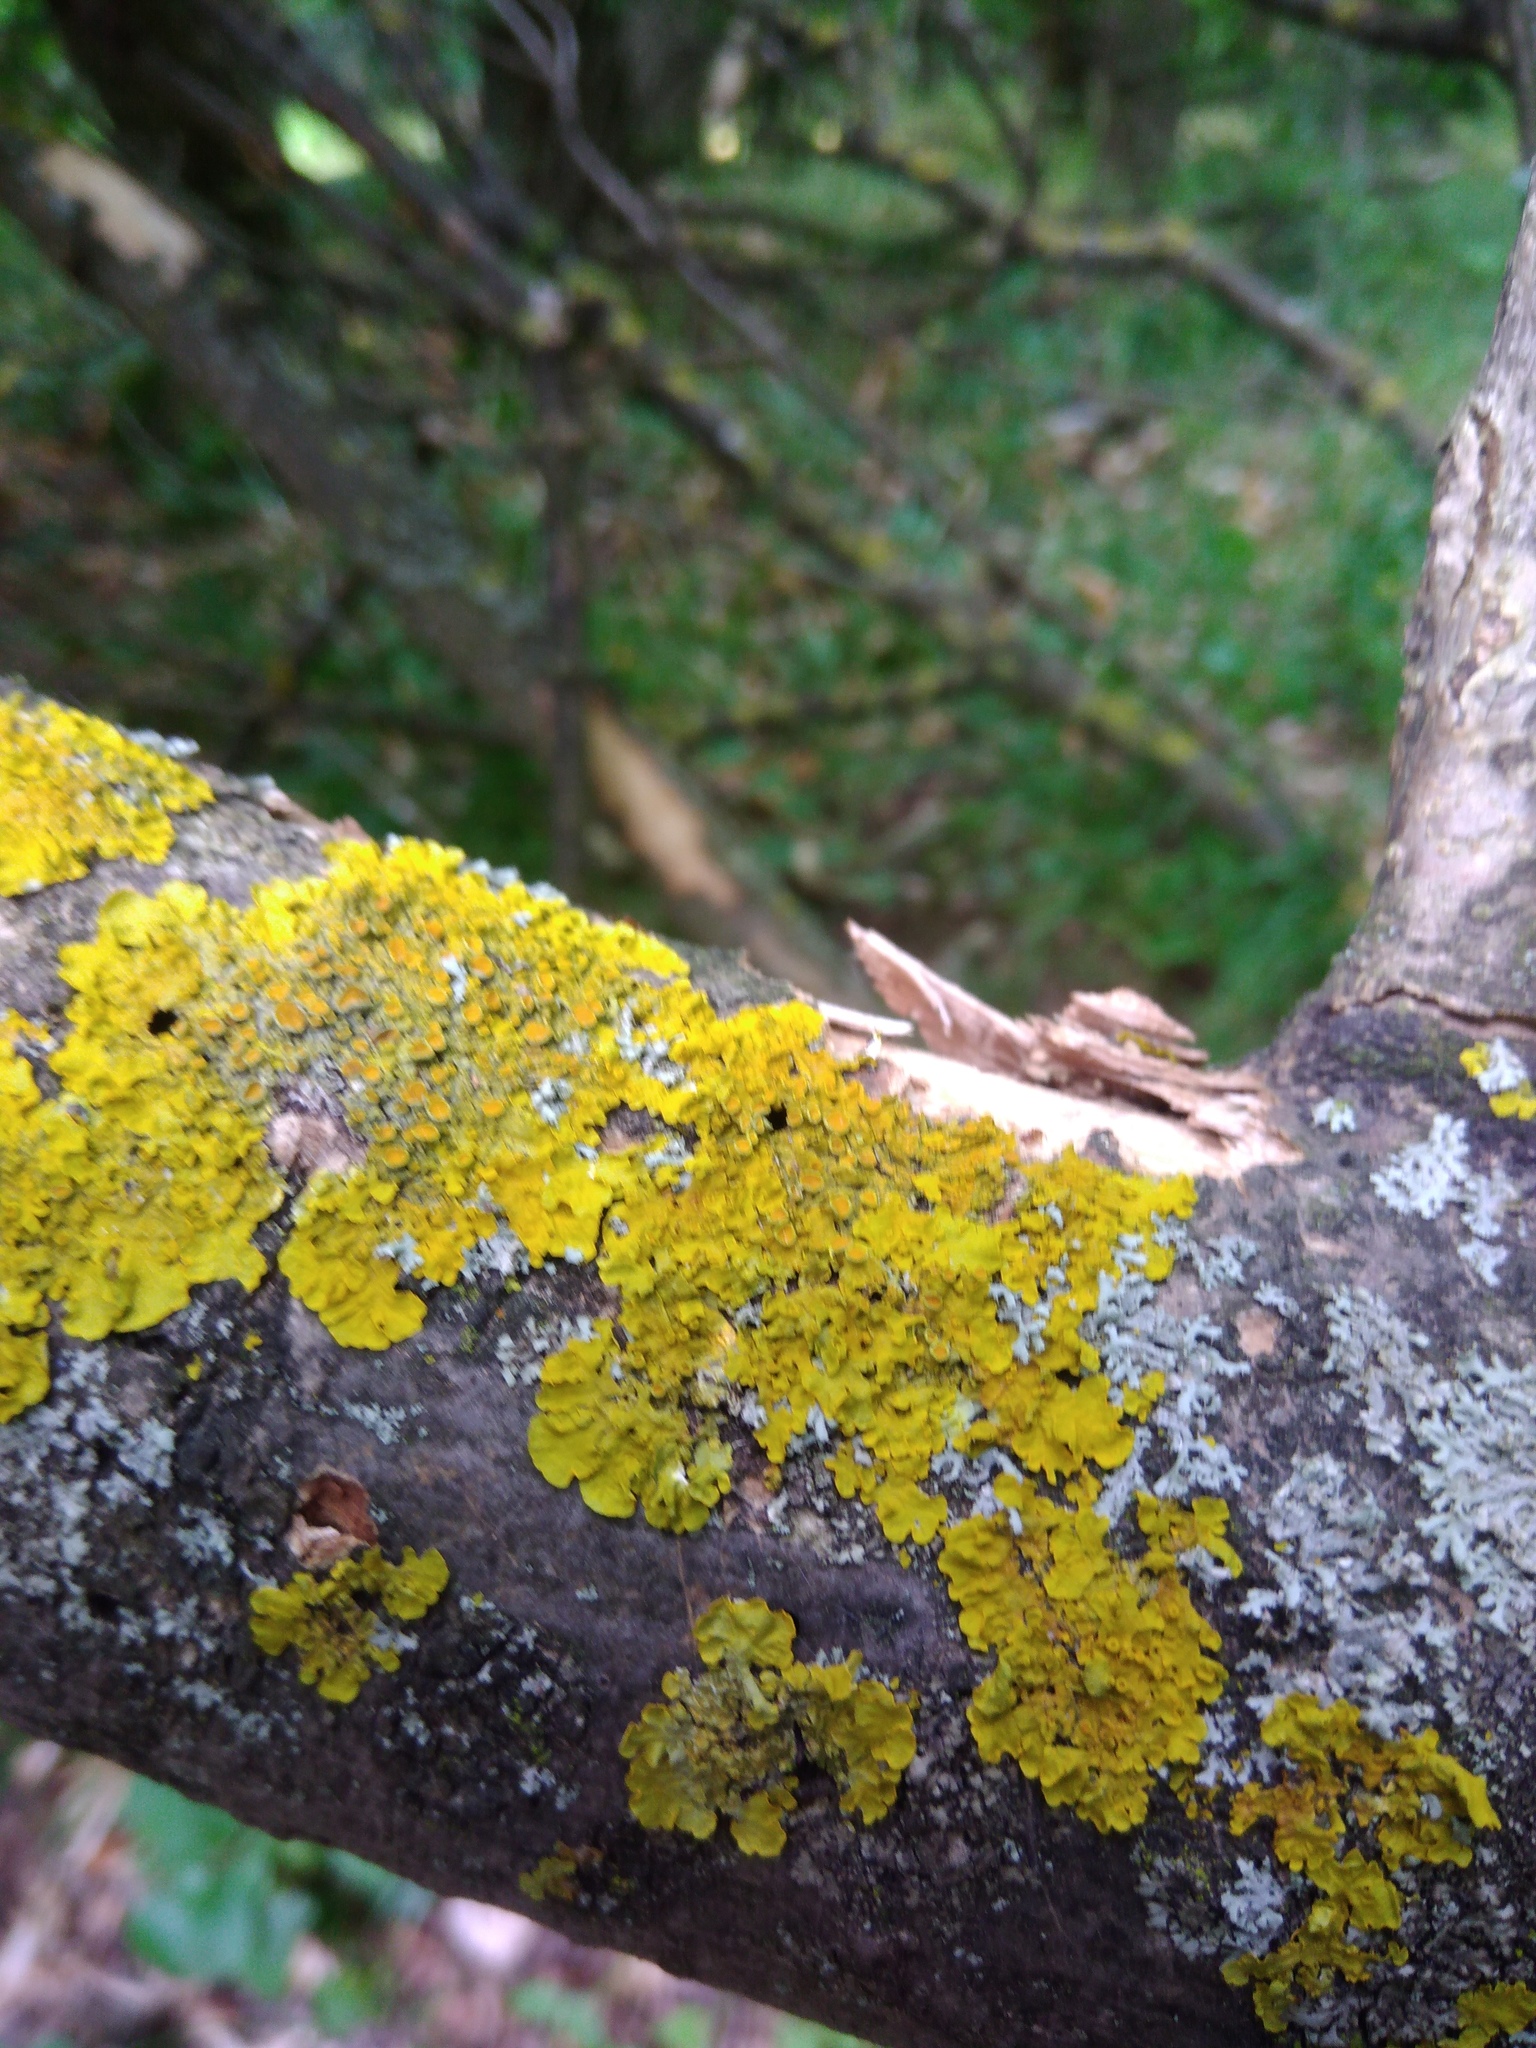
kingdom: Fungi
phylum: Ascomycota
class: Lecanoromycetes
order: Teloschistales
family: Teloschistaceae
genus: Xanthoria
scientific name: Xanthoria parietina
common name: Common orange lichen
